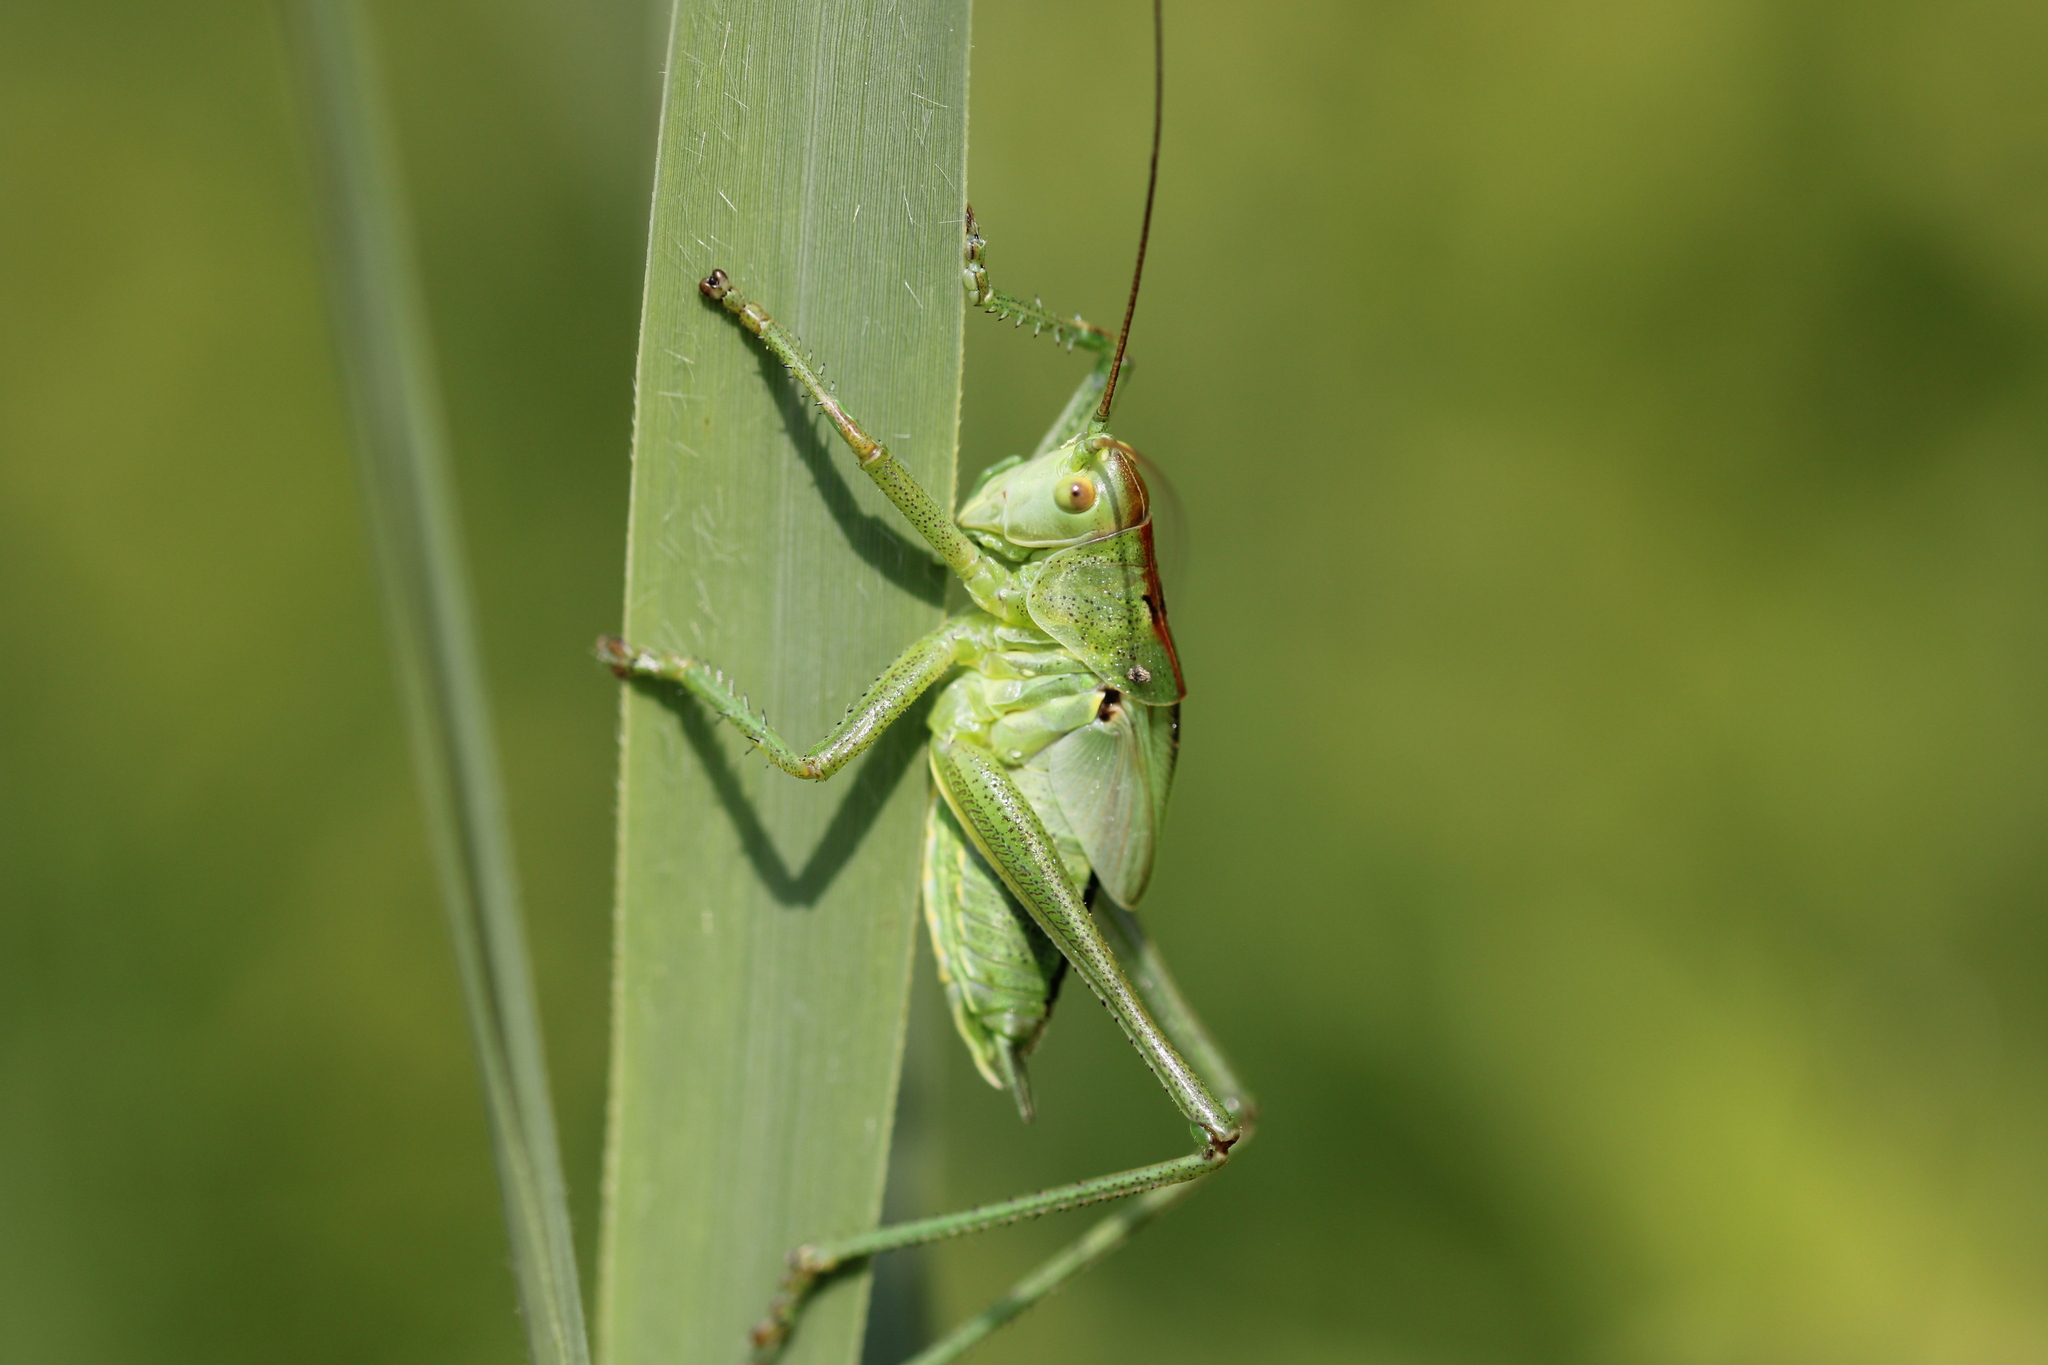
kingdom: Animalia
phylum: Arthropoda
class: Insecta
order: Orthoptera
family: Tettigoniidae
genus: Leptophyes
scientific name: Leptophyes punctatissima
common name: Speckled bush-cricket
